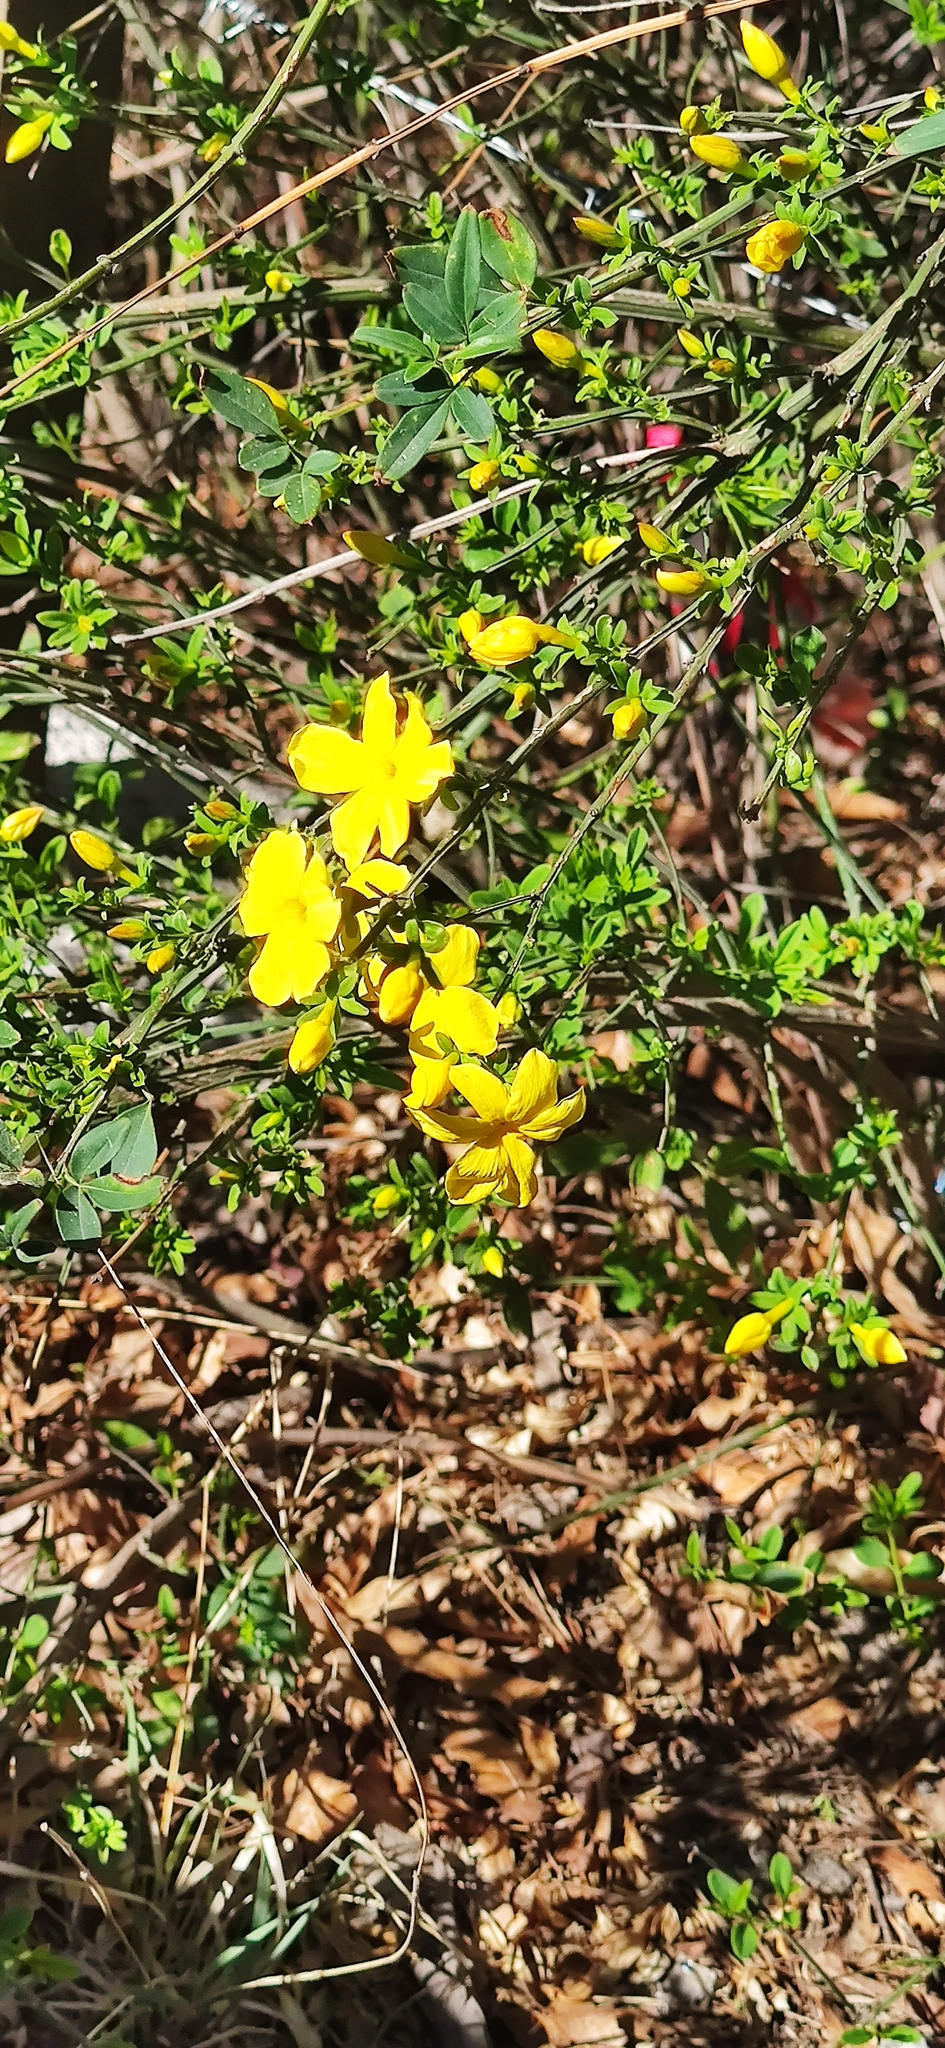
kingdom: Plantae
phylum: Tracheophyta
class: Magnoliopsida
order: Lamiales
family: Oleaceae
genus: Jasminum
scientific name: Jasminum mesnyi
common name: Japanese jasmine
